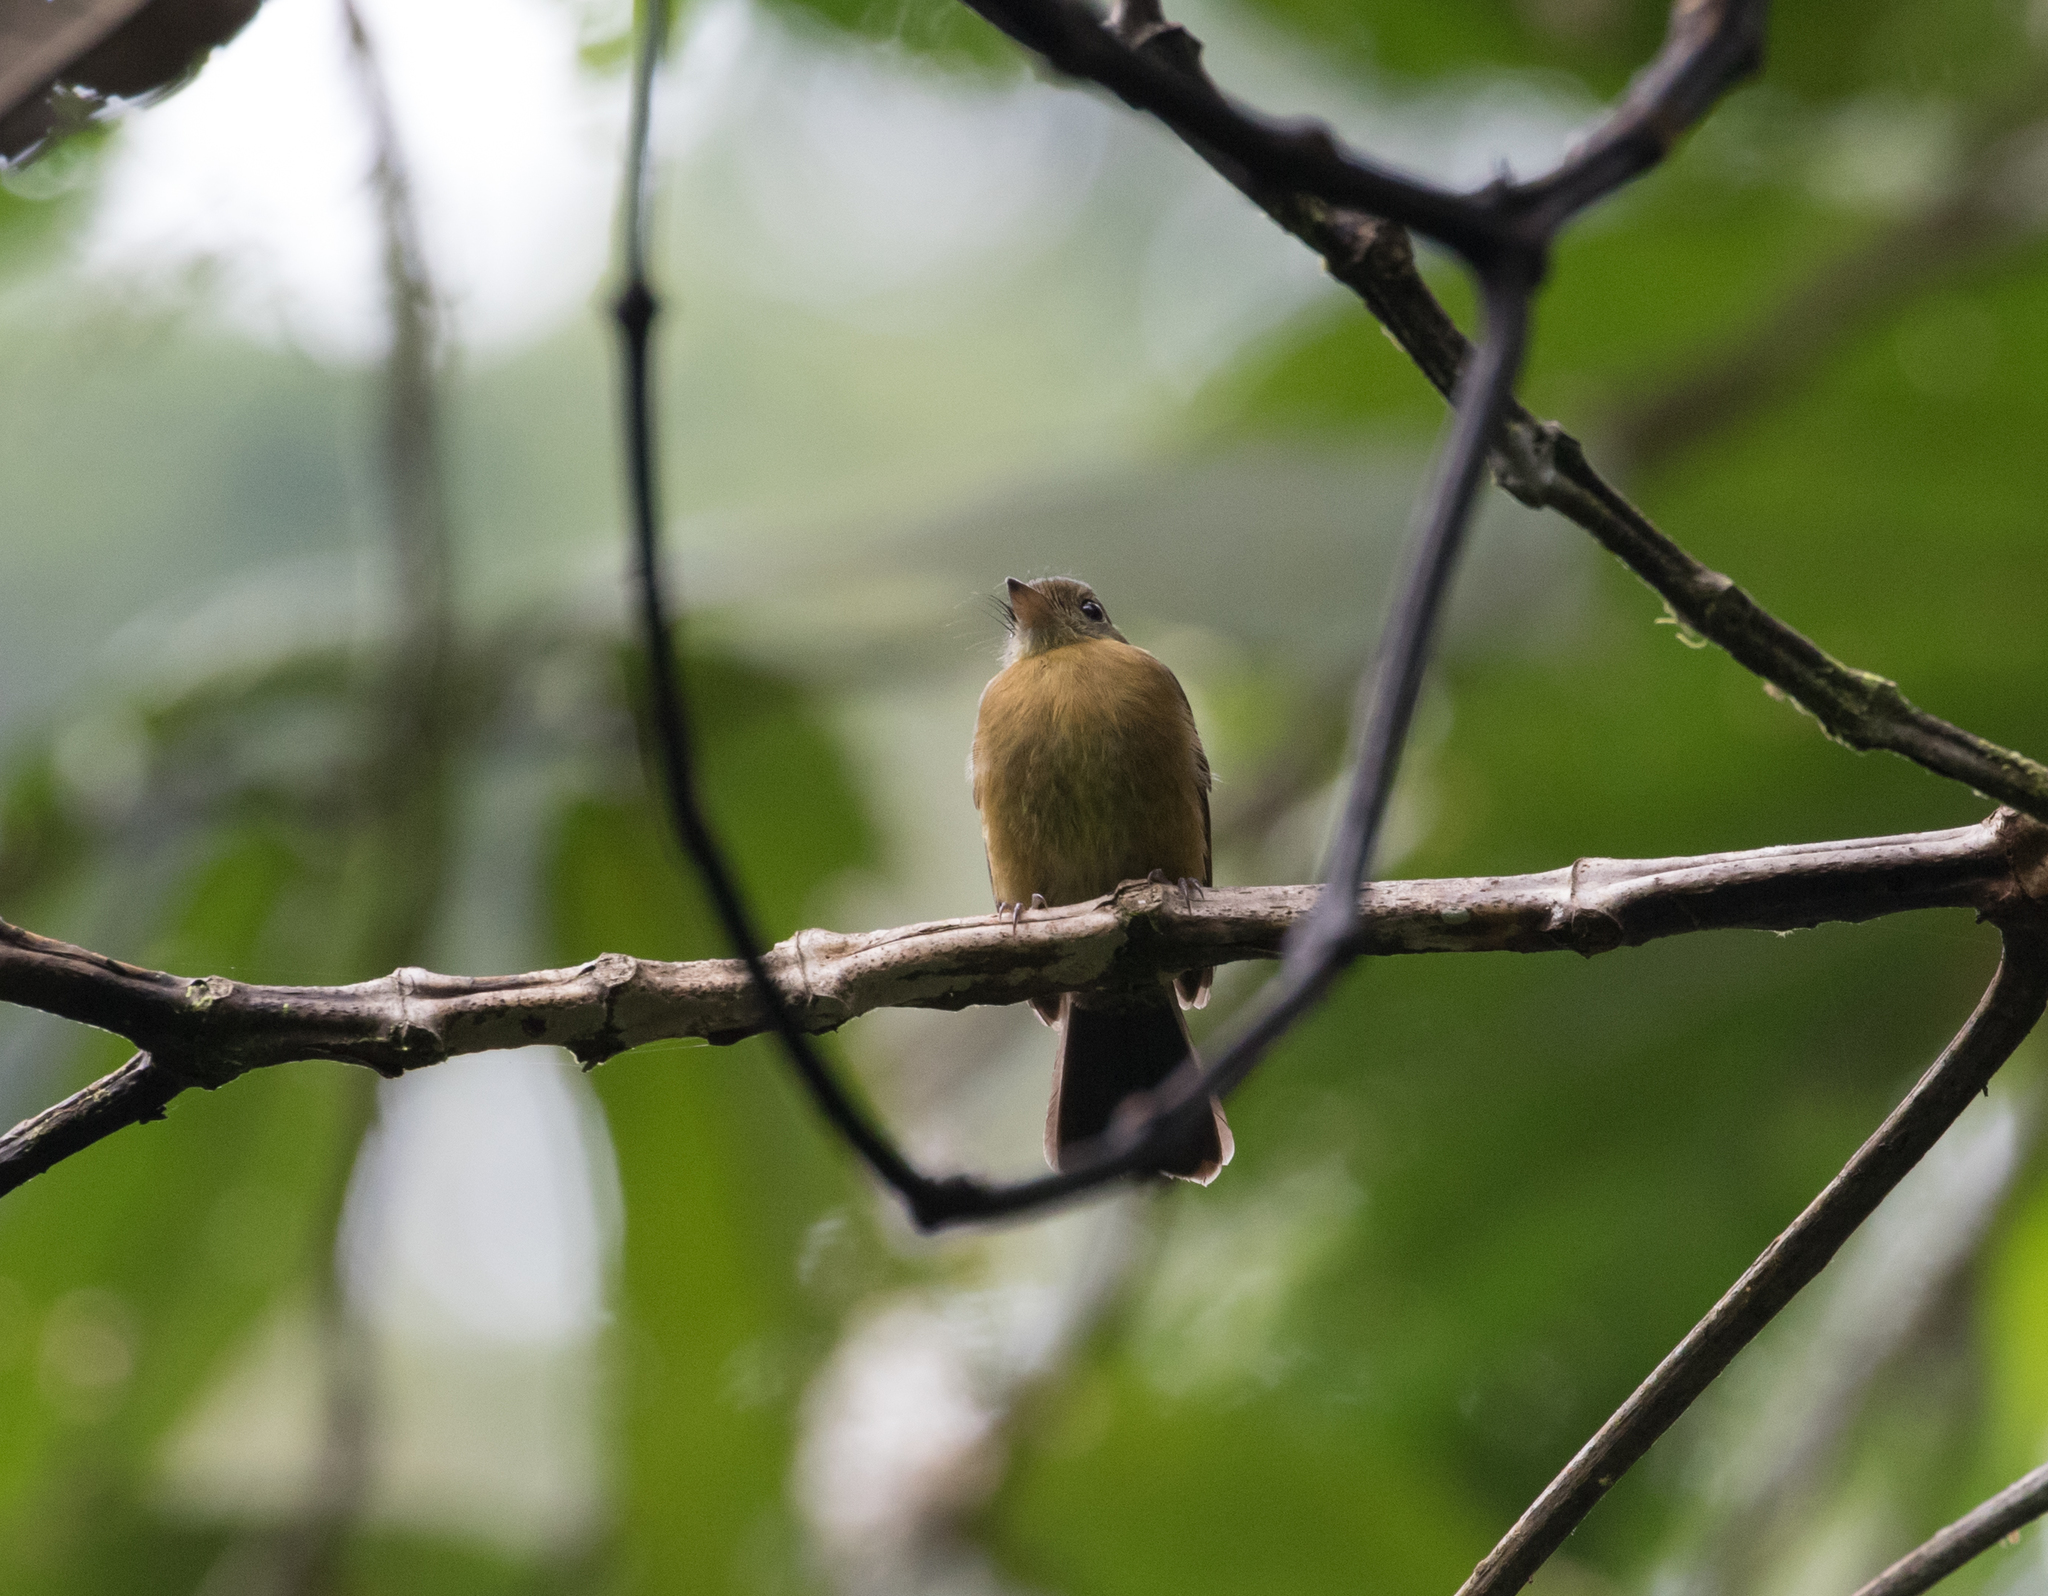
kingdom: Animalia
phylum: Chordata
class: Aves
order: Passeriformes
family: Tyrannidae
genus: Myiobius
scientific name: Myiobius villosus
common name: Tawny-breasted flycatcher
